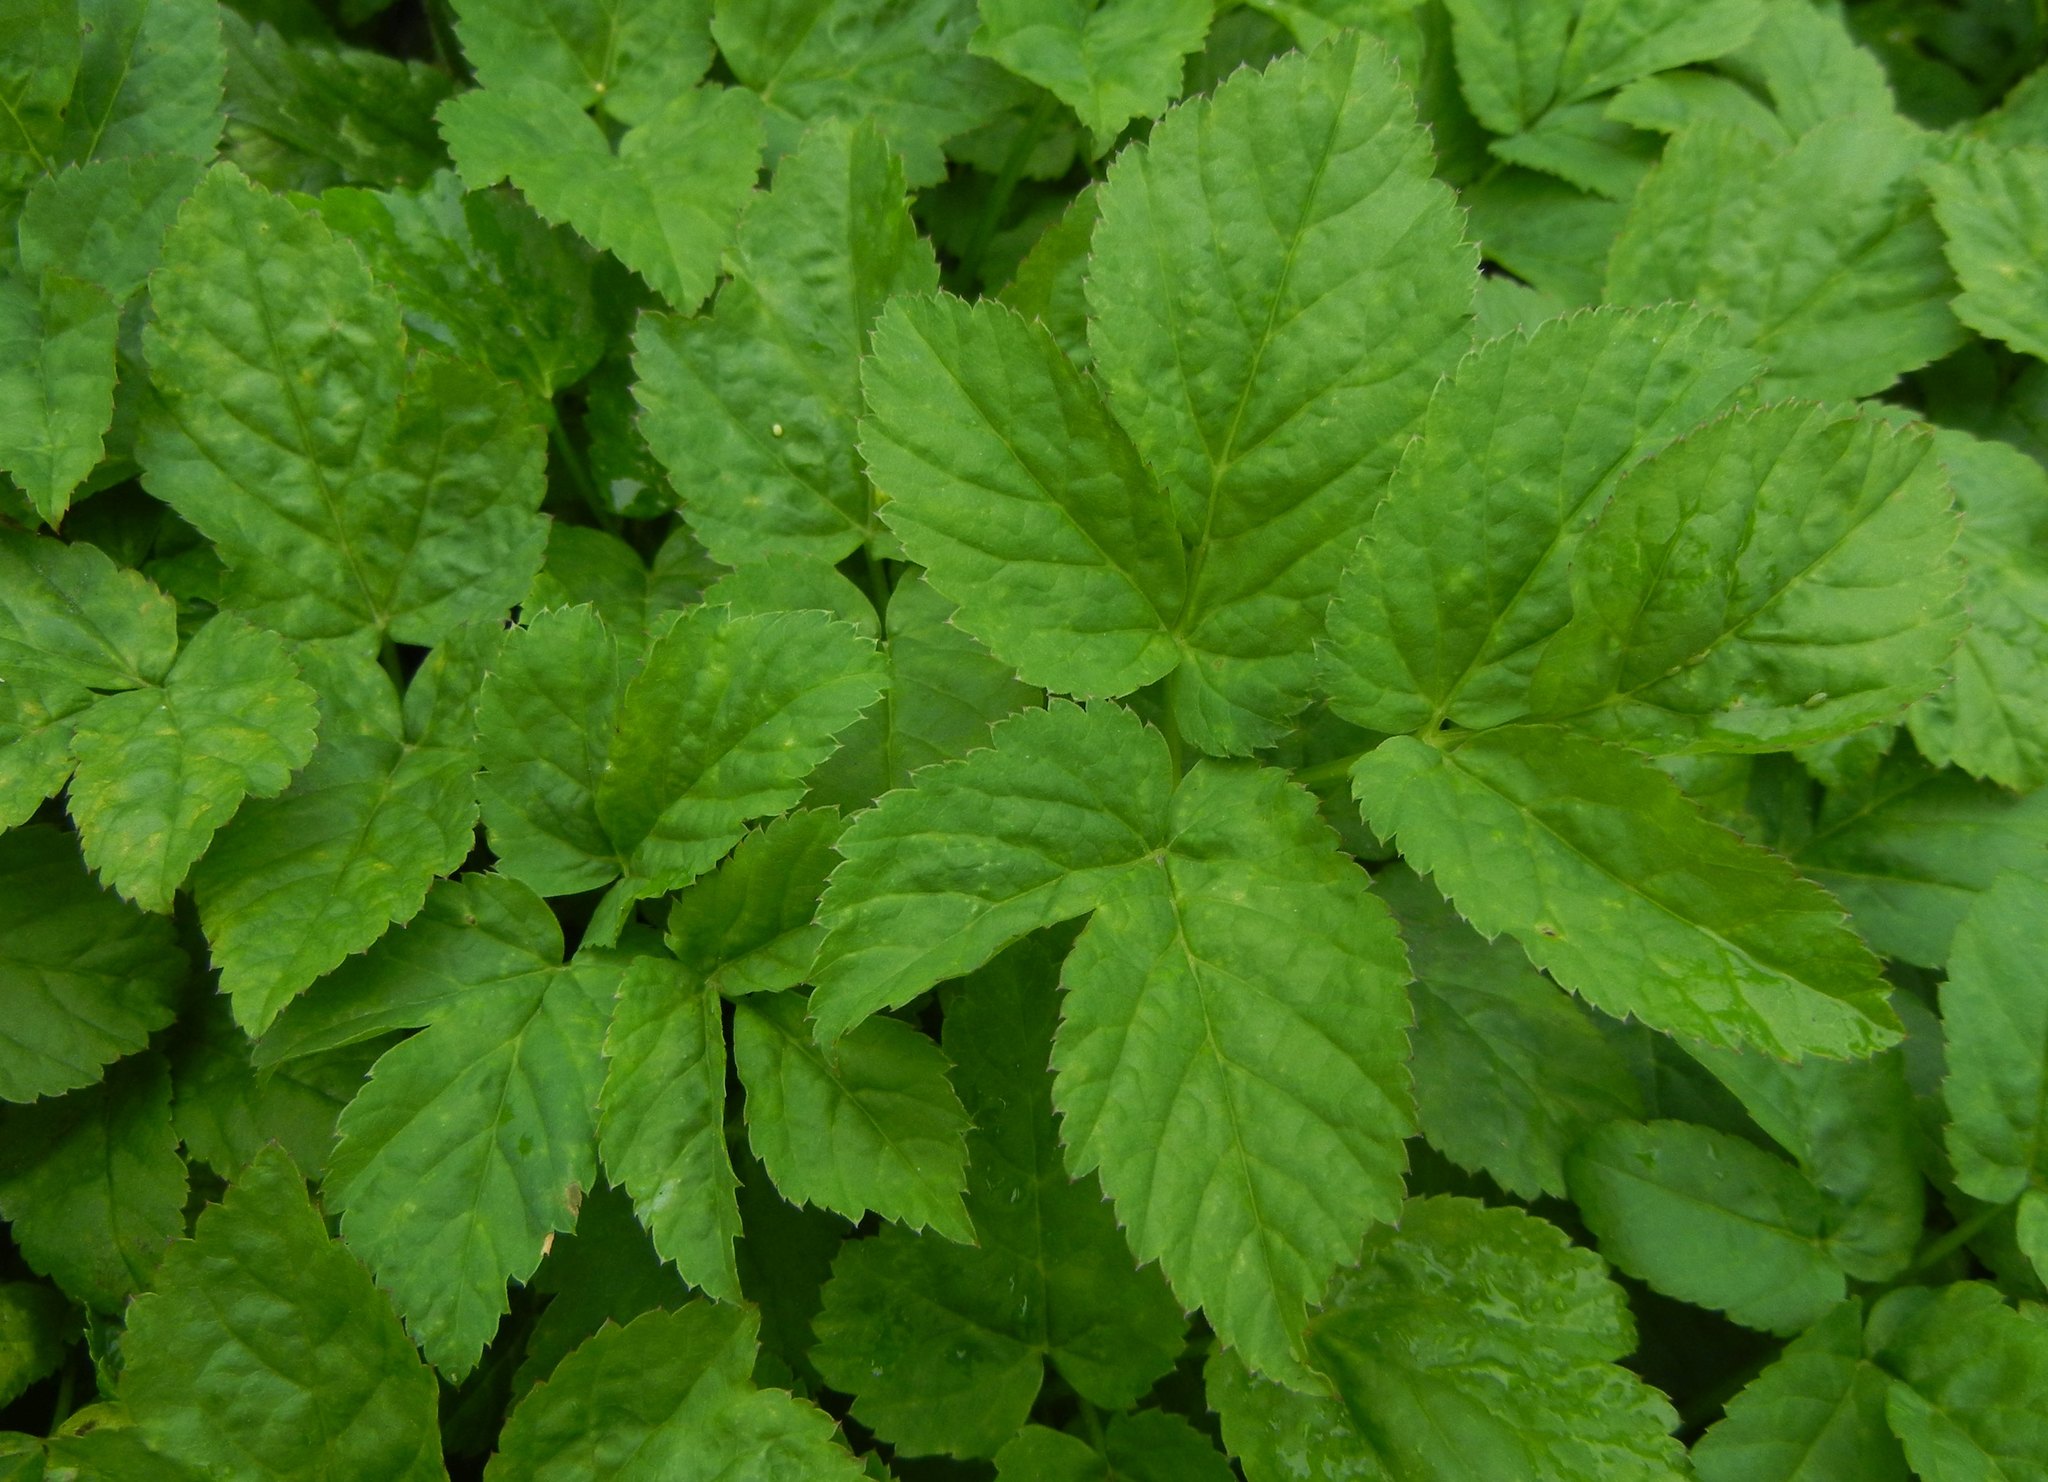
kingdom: Plantae
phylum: Tracheophyta
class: Magnoliopsida
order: Apiales
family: Apiaceae
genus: Aegopodium
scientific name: Aegopodium podagraria
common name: Ground-elder
